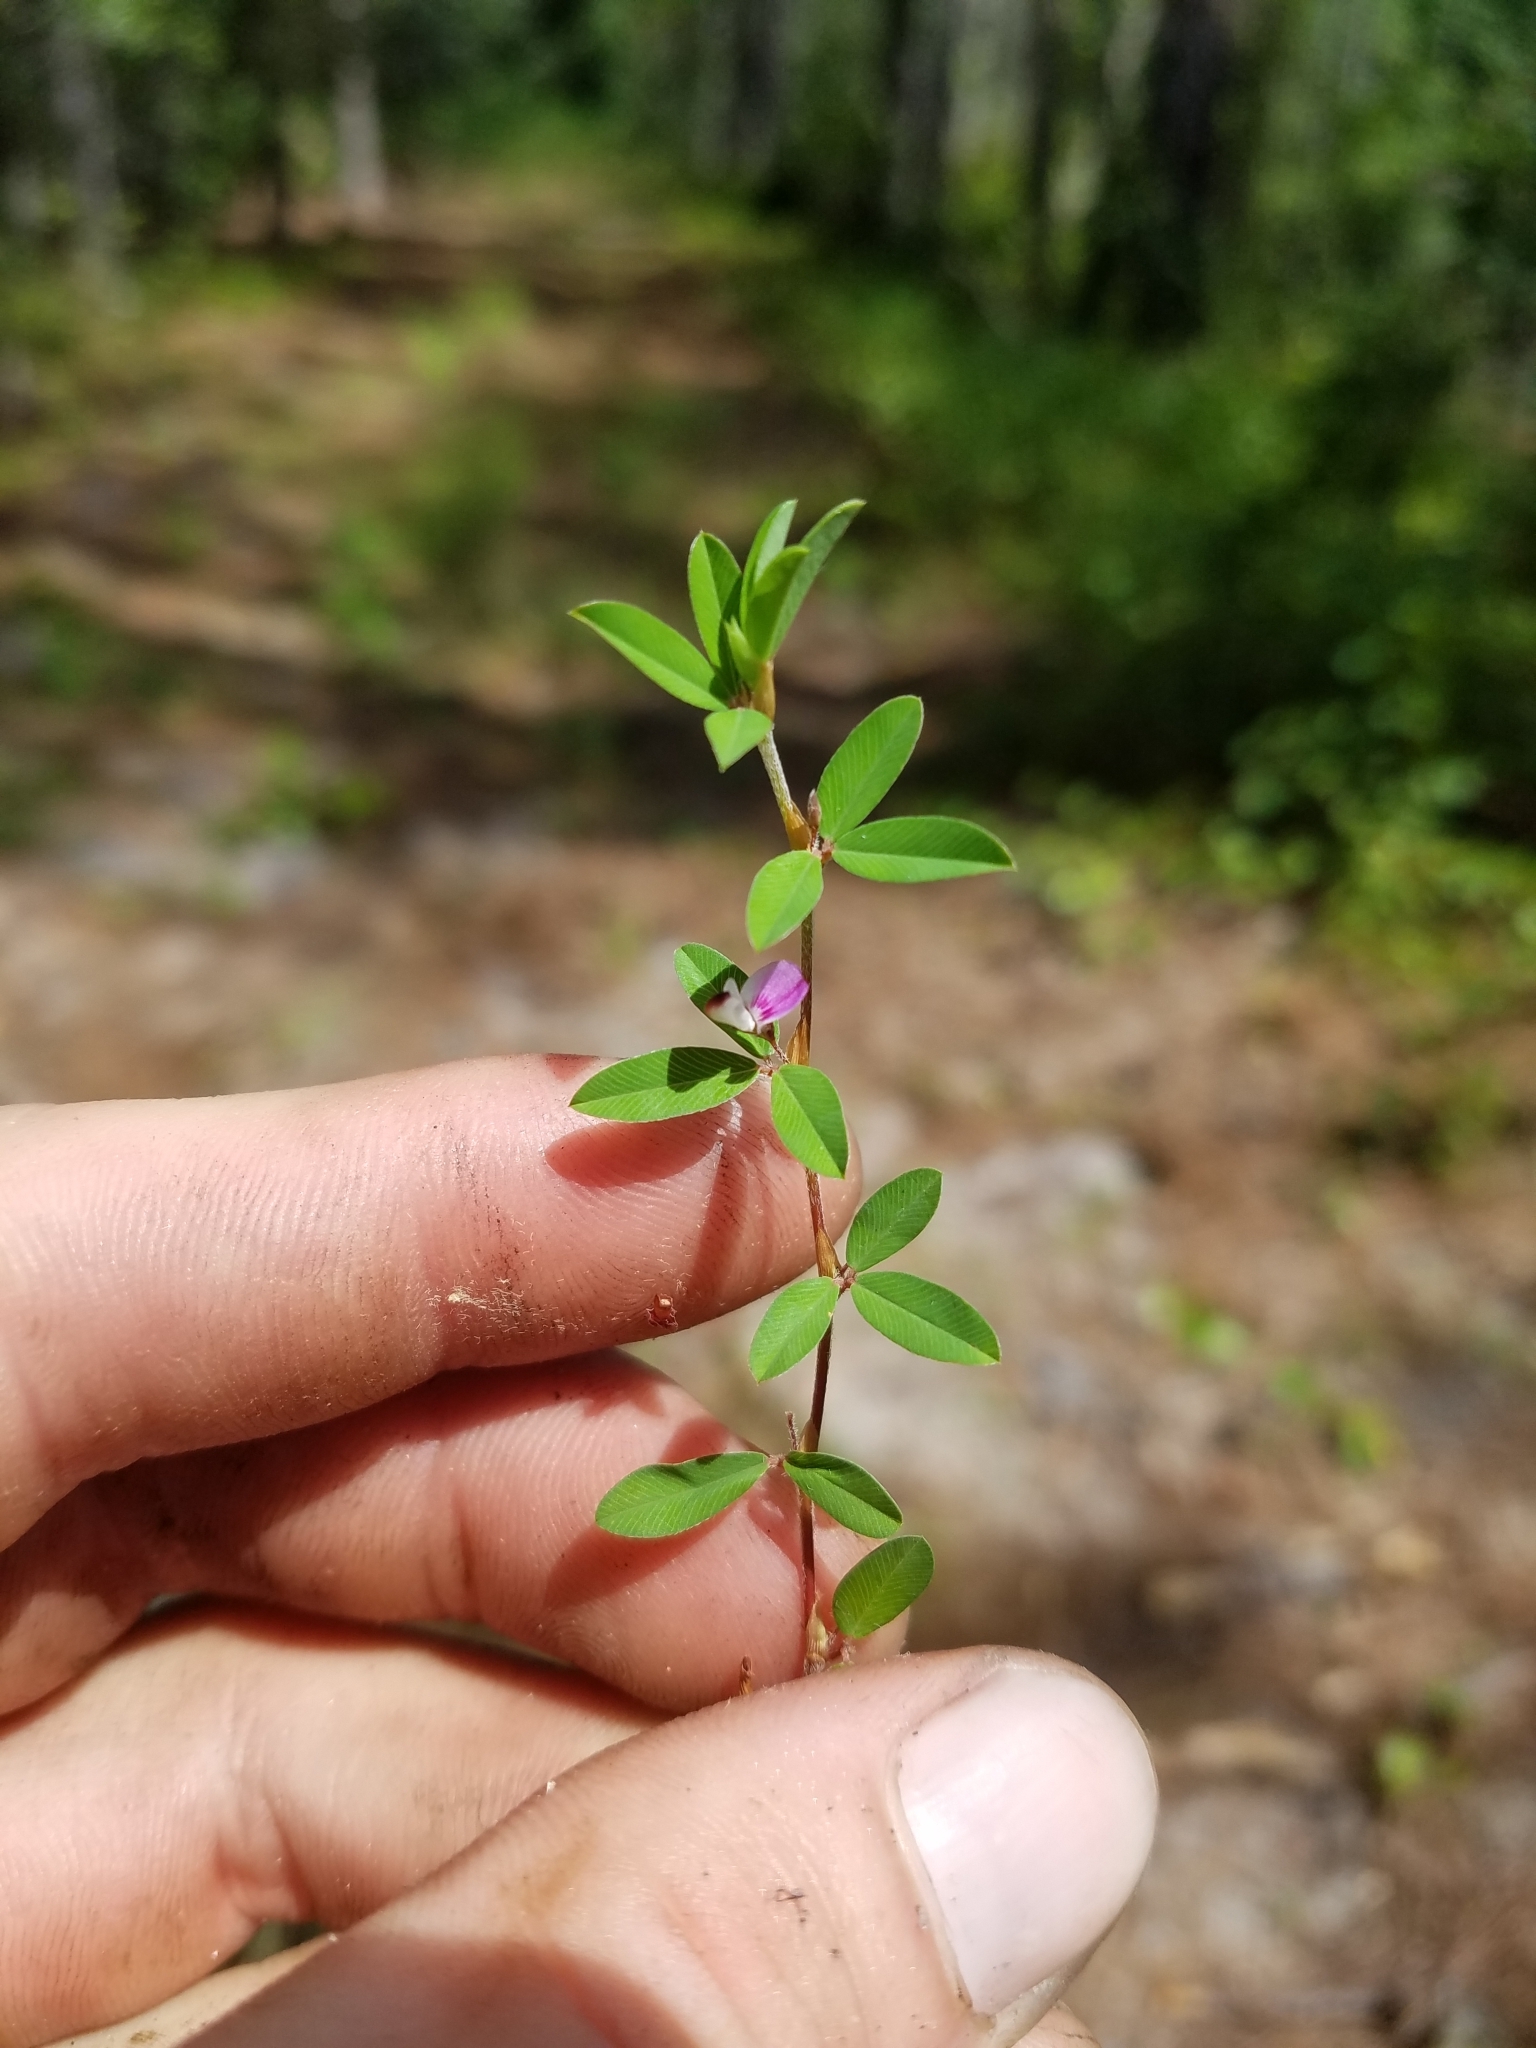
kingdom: Plantae
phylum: Tracheophyta
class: Magnoliopsida
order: Fabales
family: Fabaceae
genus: Kummerowia
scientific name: Kummerowia striata
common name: Japanese clover
